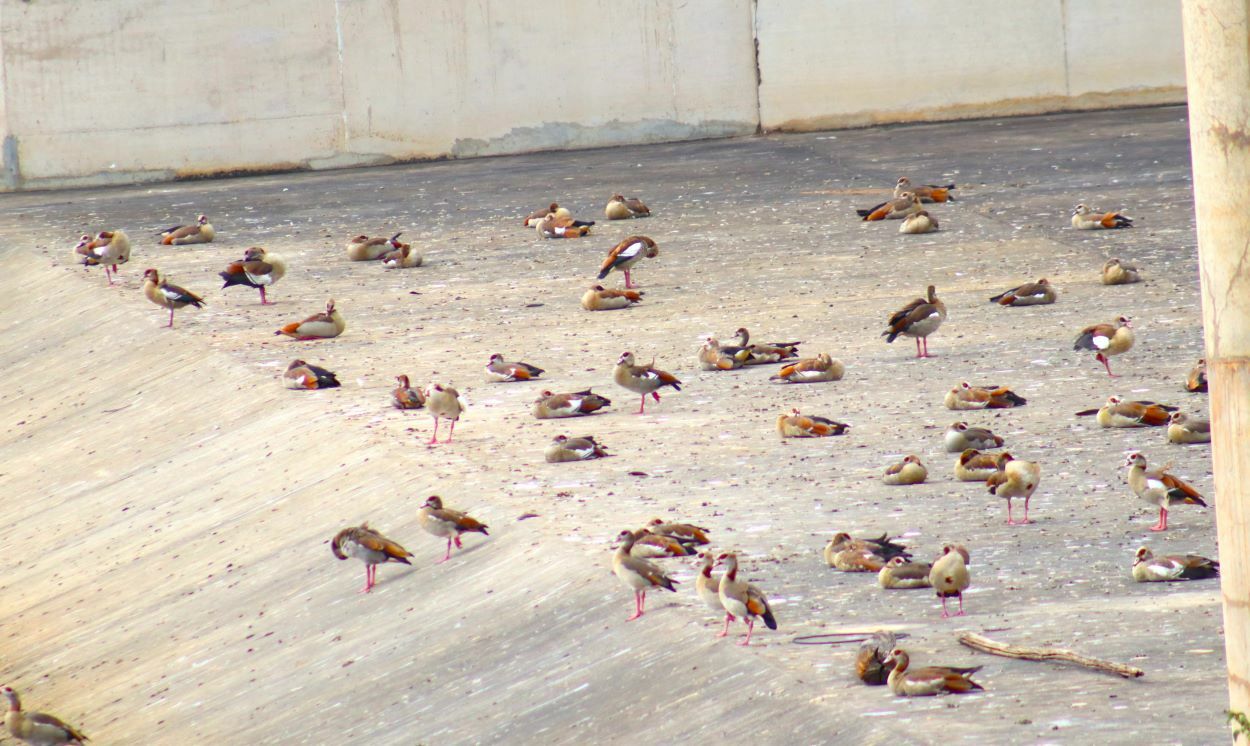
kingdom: Animalia
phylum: Chordata
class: Aves
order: Anseriformes
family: Anatidae
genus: Alopochen
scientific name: Alopochen aegyptiaca
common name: Egyptian goose
